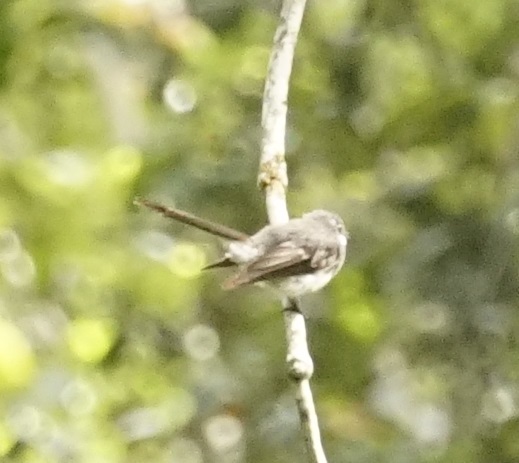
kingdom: Animalia
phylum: Chordata
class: Aves
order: Passeriformes
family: Rhipiduridae
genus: Rhipidura
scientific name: Rhipidura albiscapa
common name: Grey fantail
